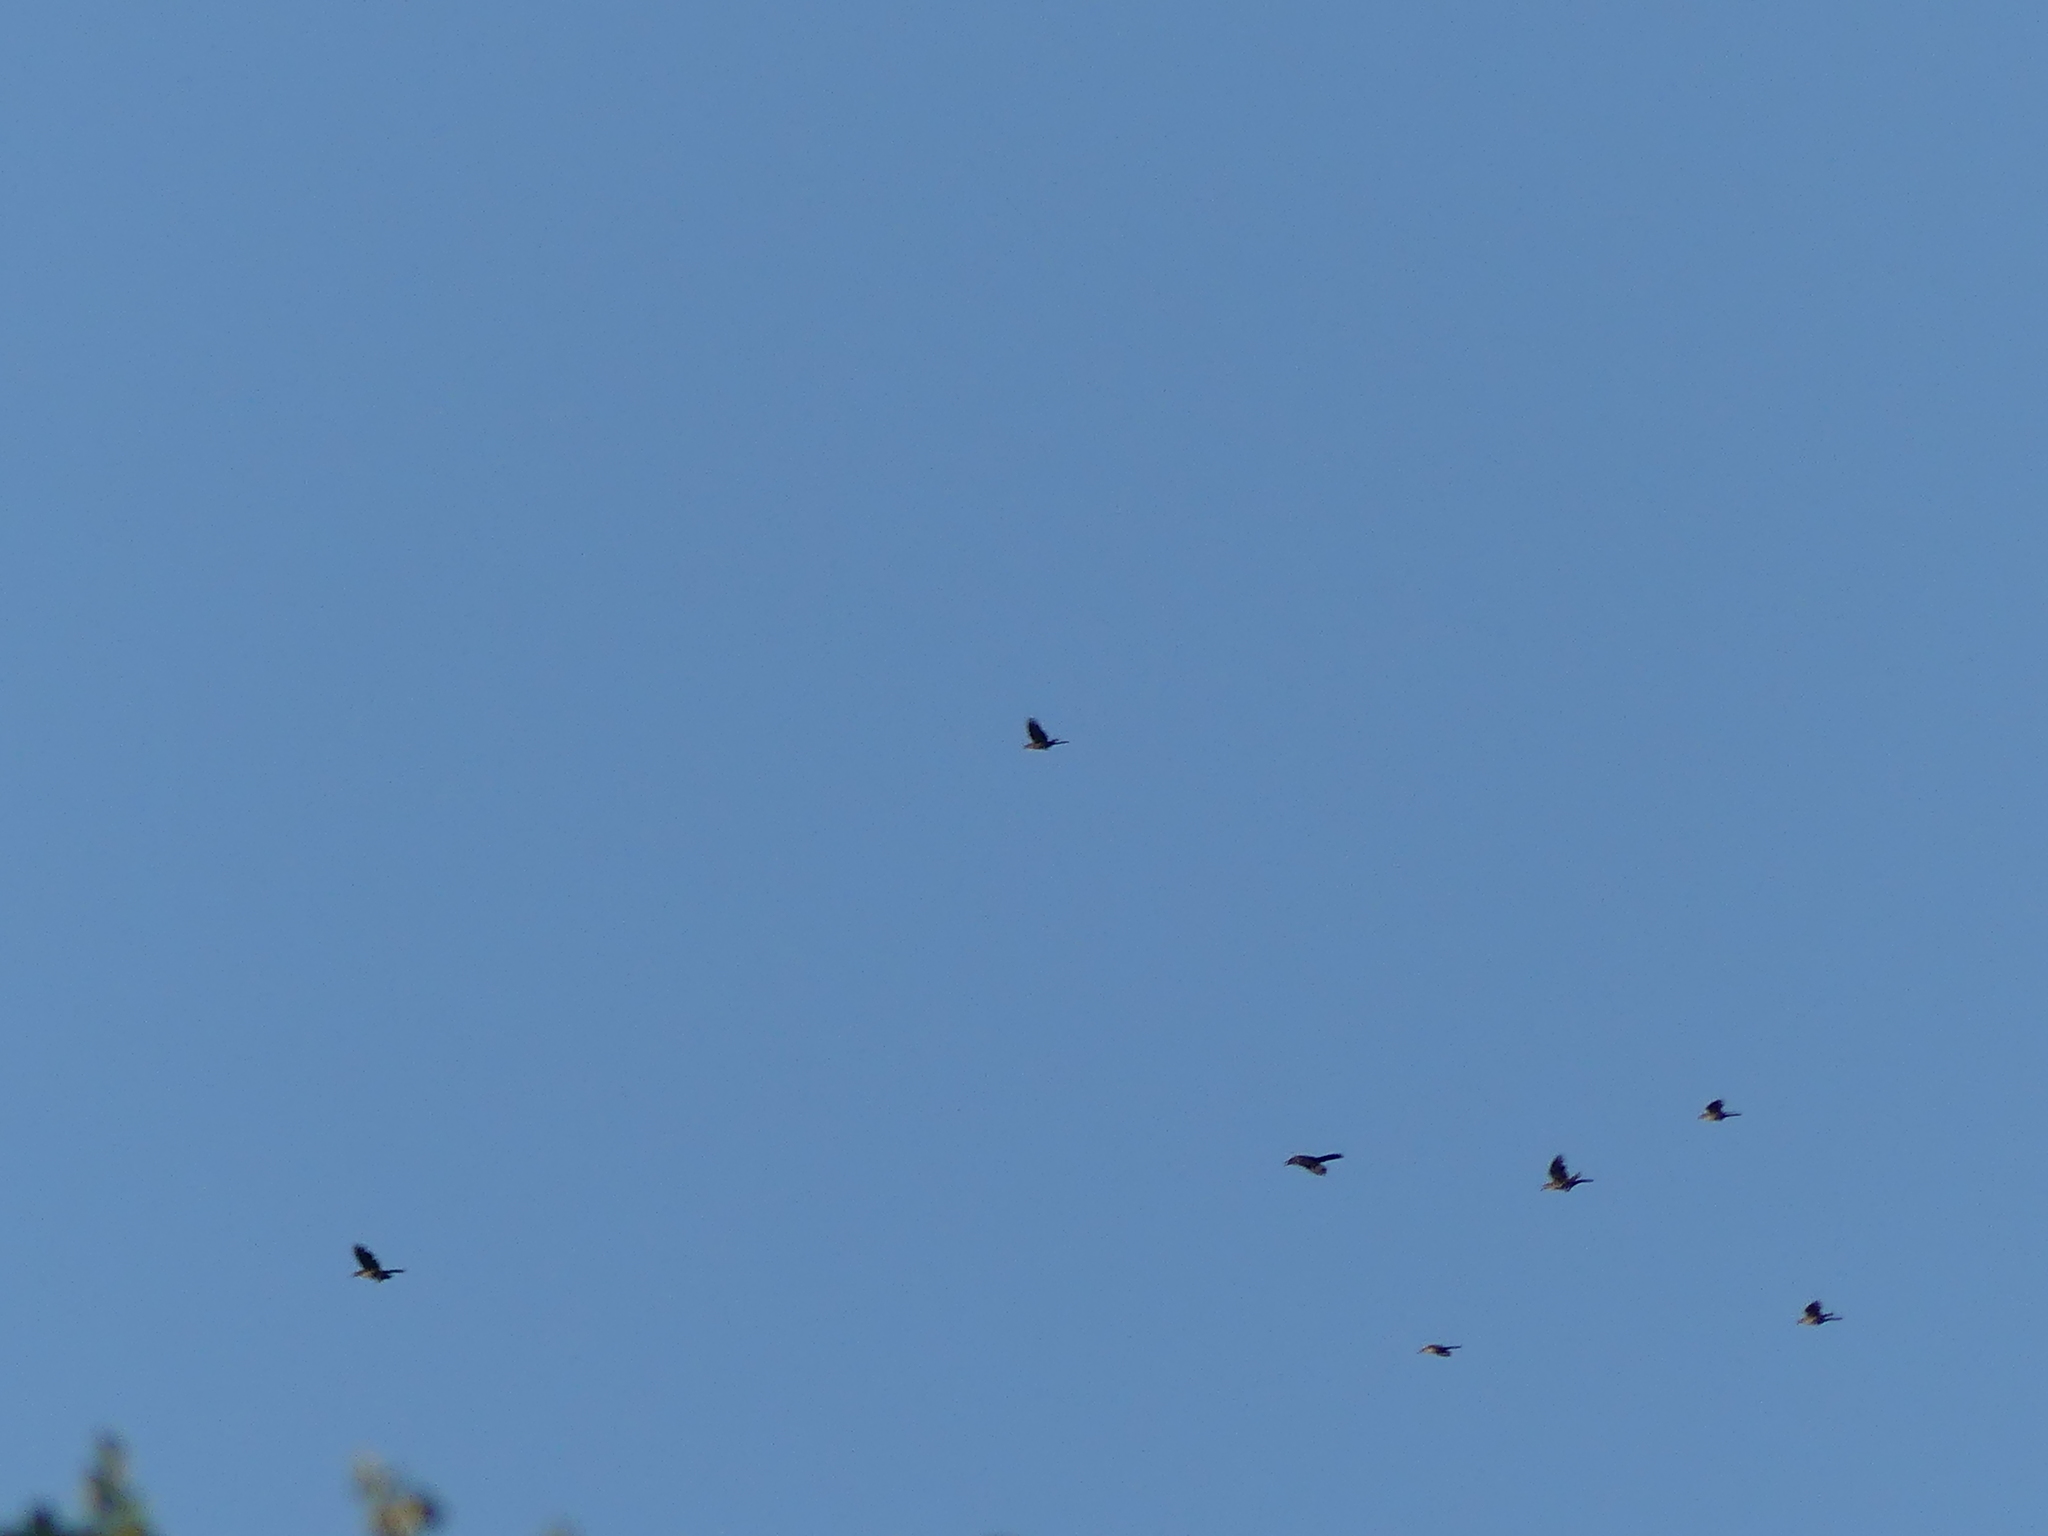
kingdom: Animalia
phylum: Chordata
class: Aves
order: Passeriformes
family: Icteridae
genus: Quiscalus
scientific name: Quiscalus mexicanus
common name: Great-tailed grackle
